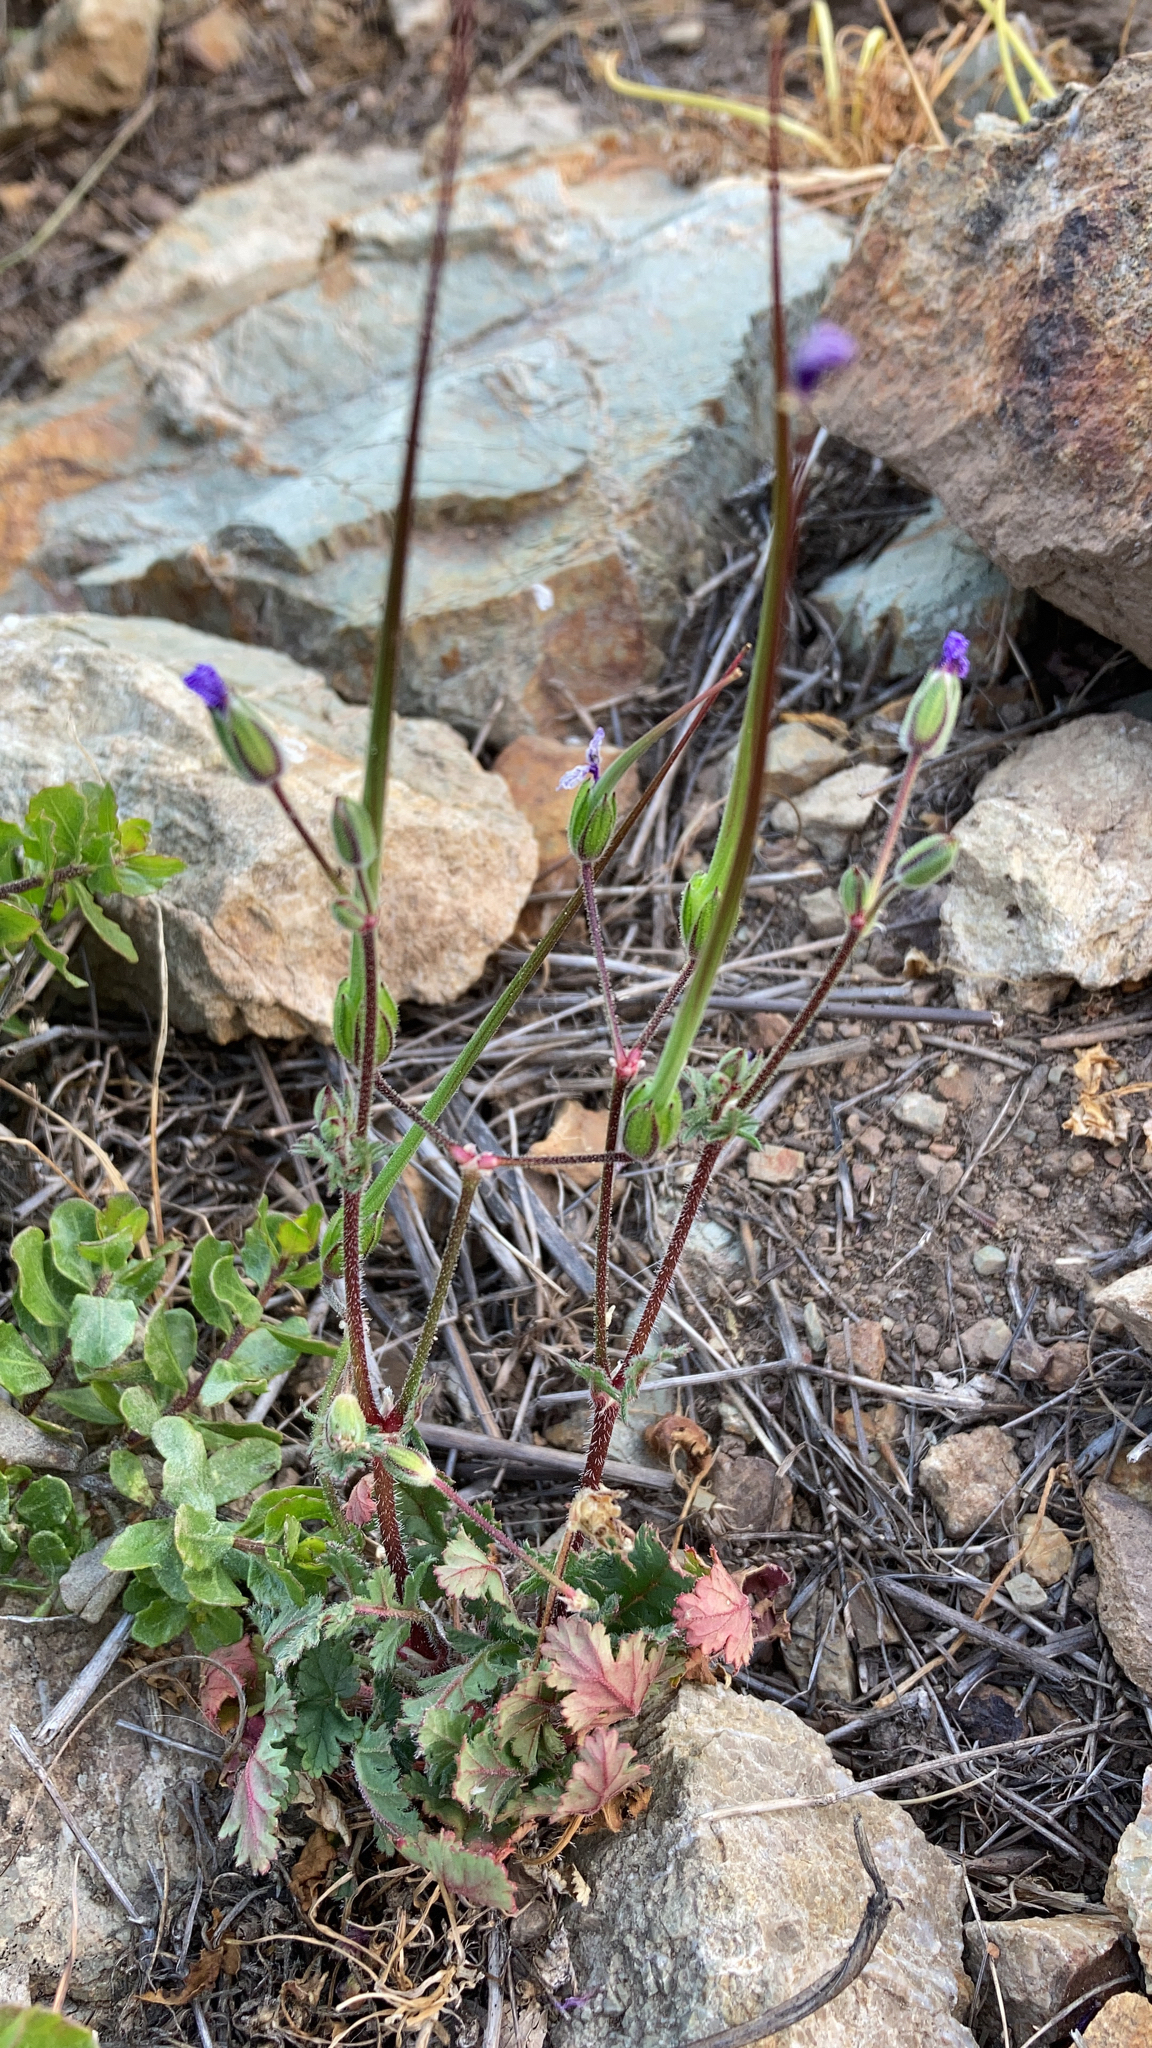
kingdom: Plantae
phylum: Tracheophyta
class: Magnoliopsida
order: Geraniales
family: Geraniaceae
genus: Erodium
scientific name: Erodium botrys
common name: Mediterranean stork's-bill
